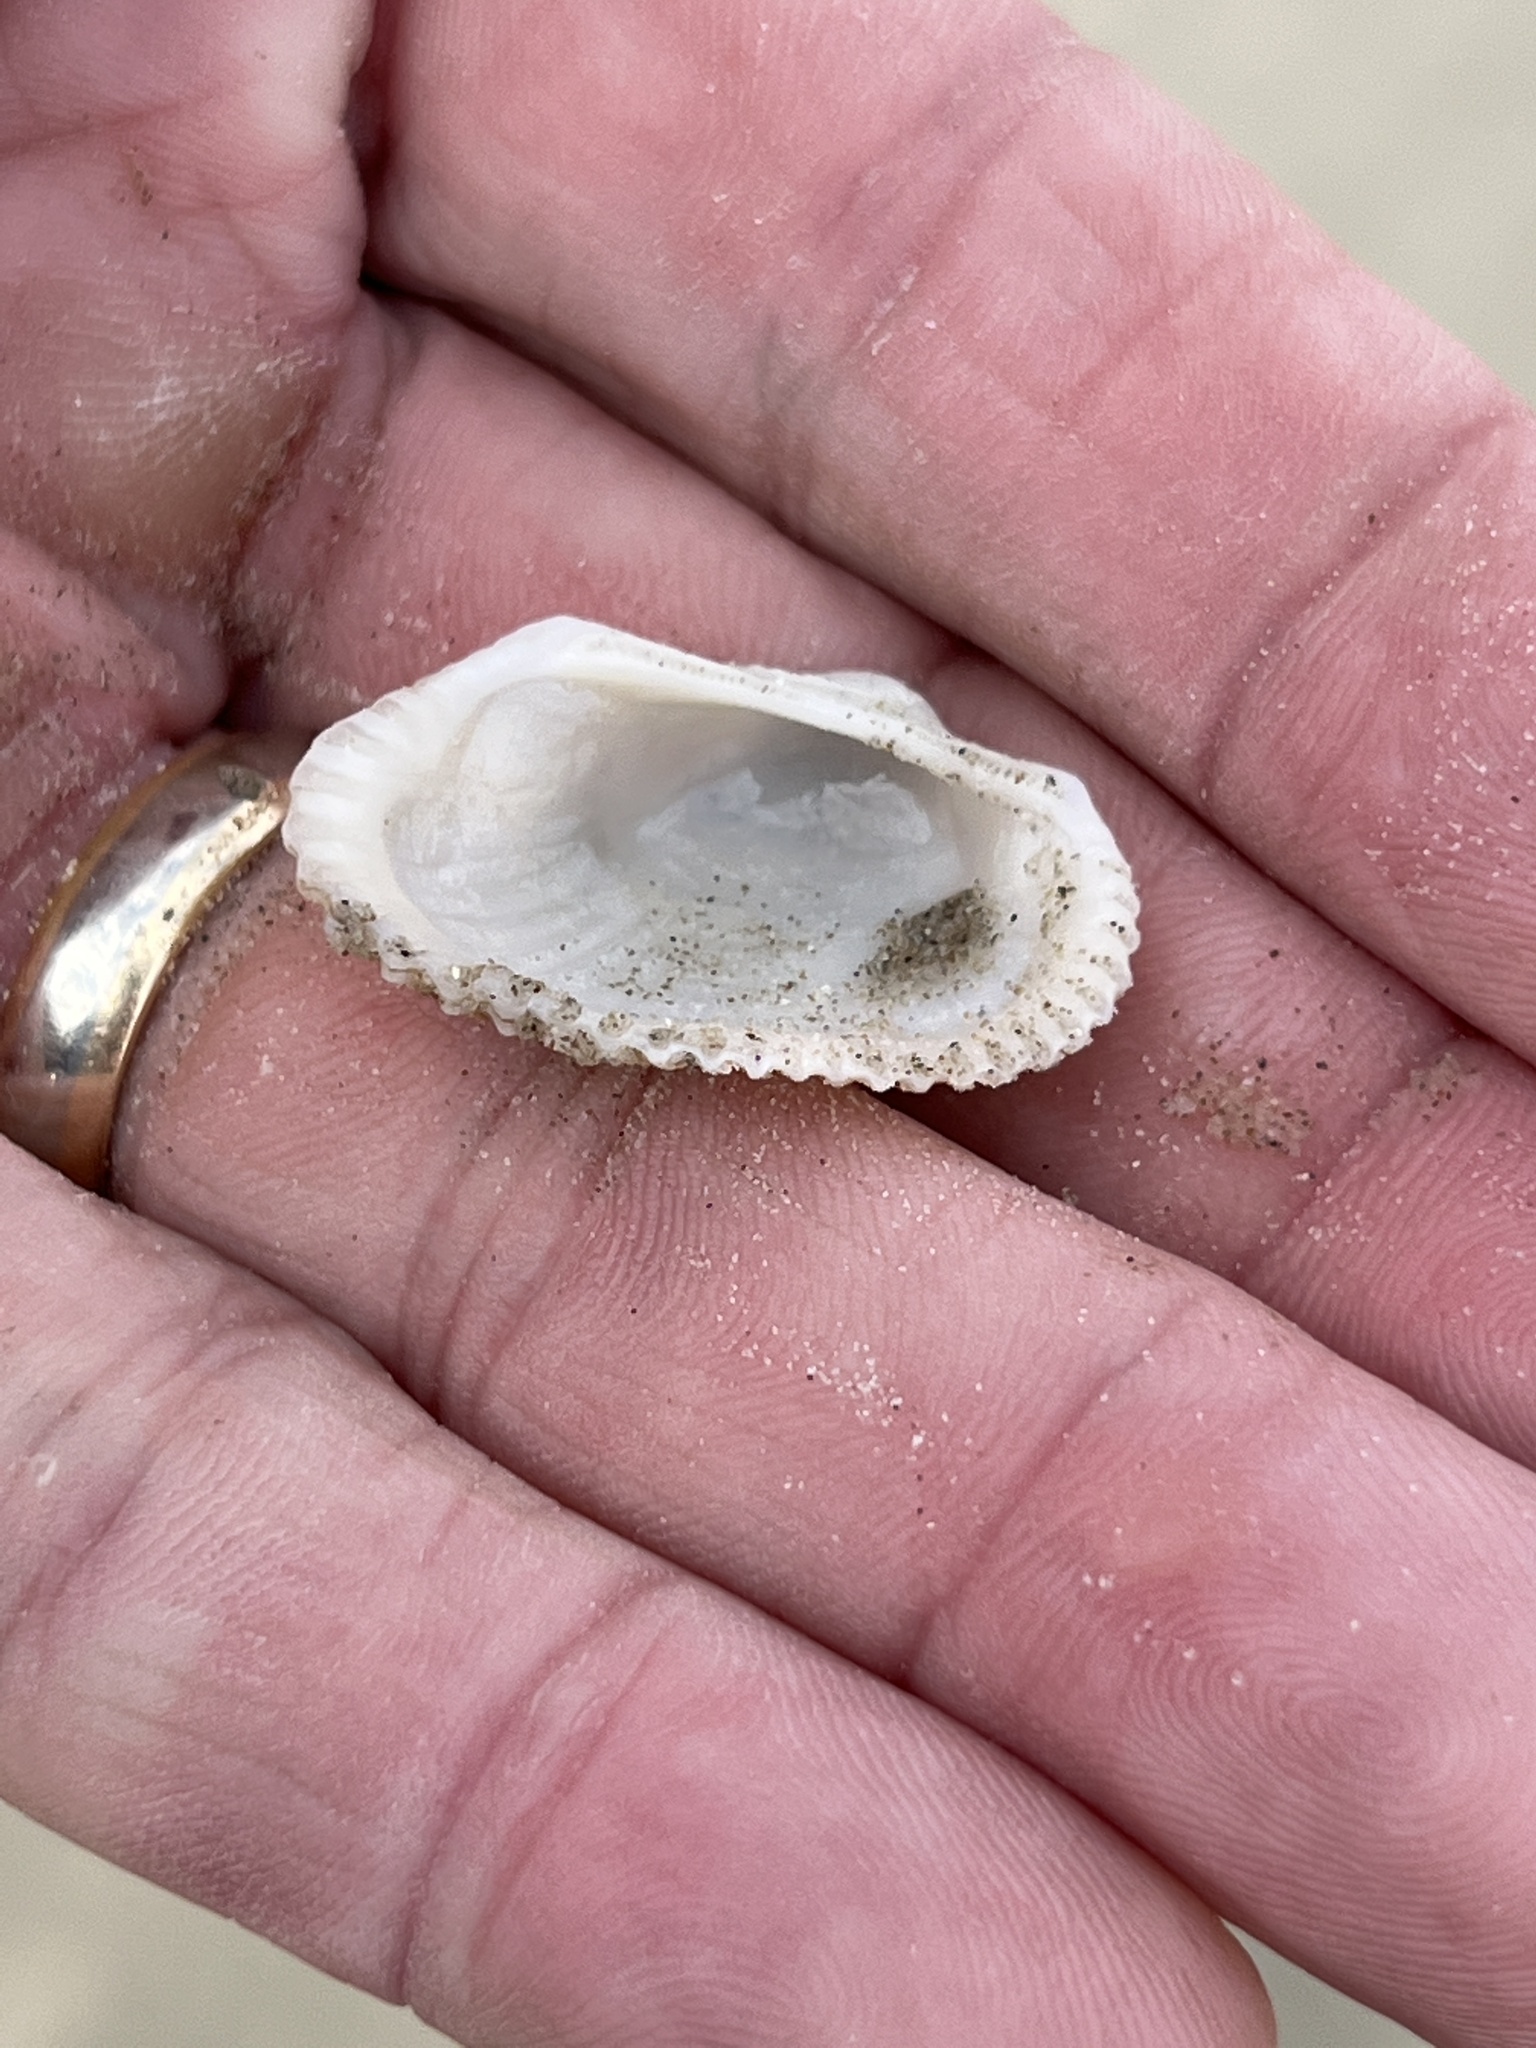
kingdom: Animalia
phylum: Mollusca
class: Bivalvia
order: Arcida
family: Arcidae
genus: Anadara
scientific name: Anadara transversa
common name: Transverse ark
